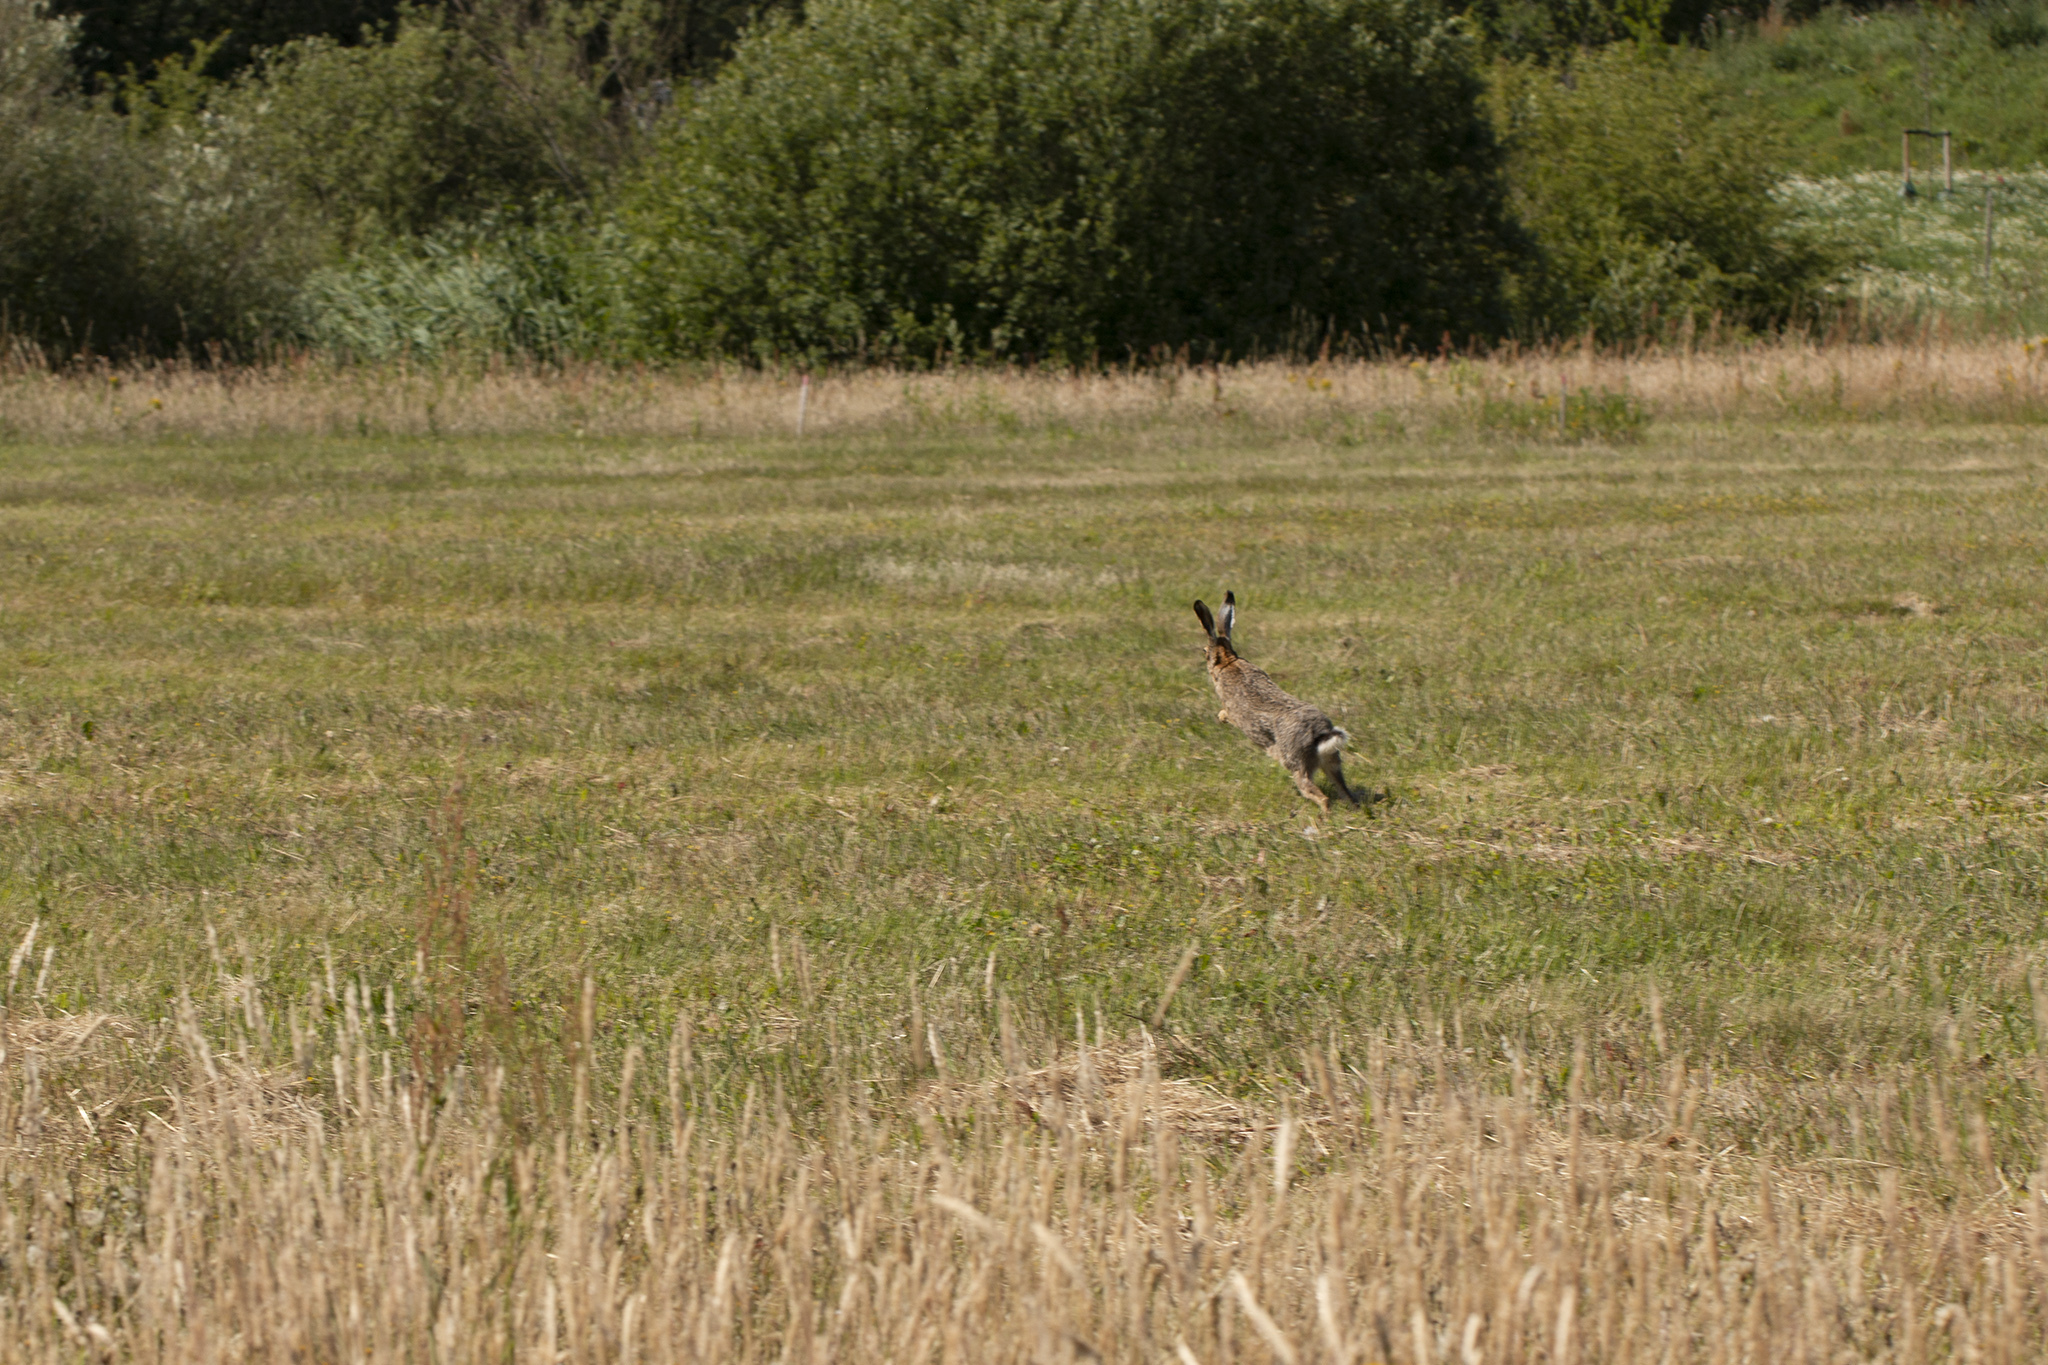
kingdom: Animalia
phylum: Chordata
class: Mammalia
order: Lagomorpha
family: Leporidae
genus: Lepus
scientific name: Lepus europaeus
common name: European hare
